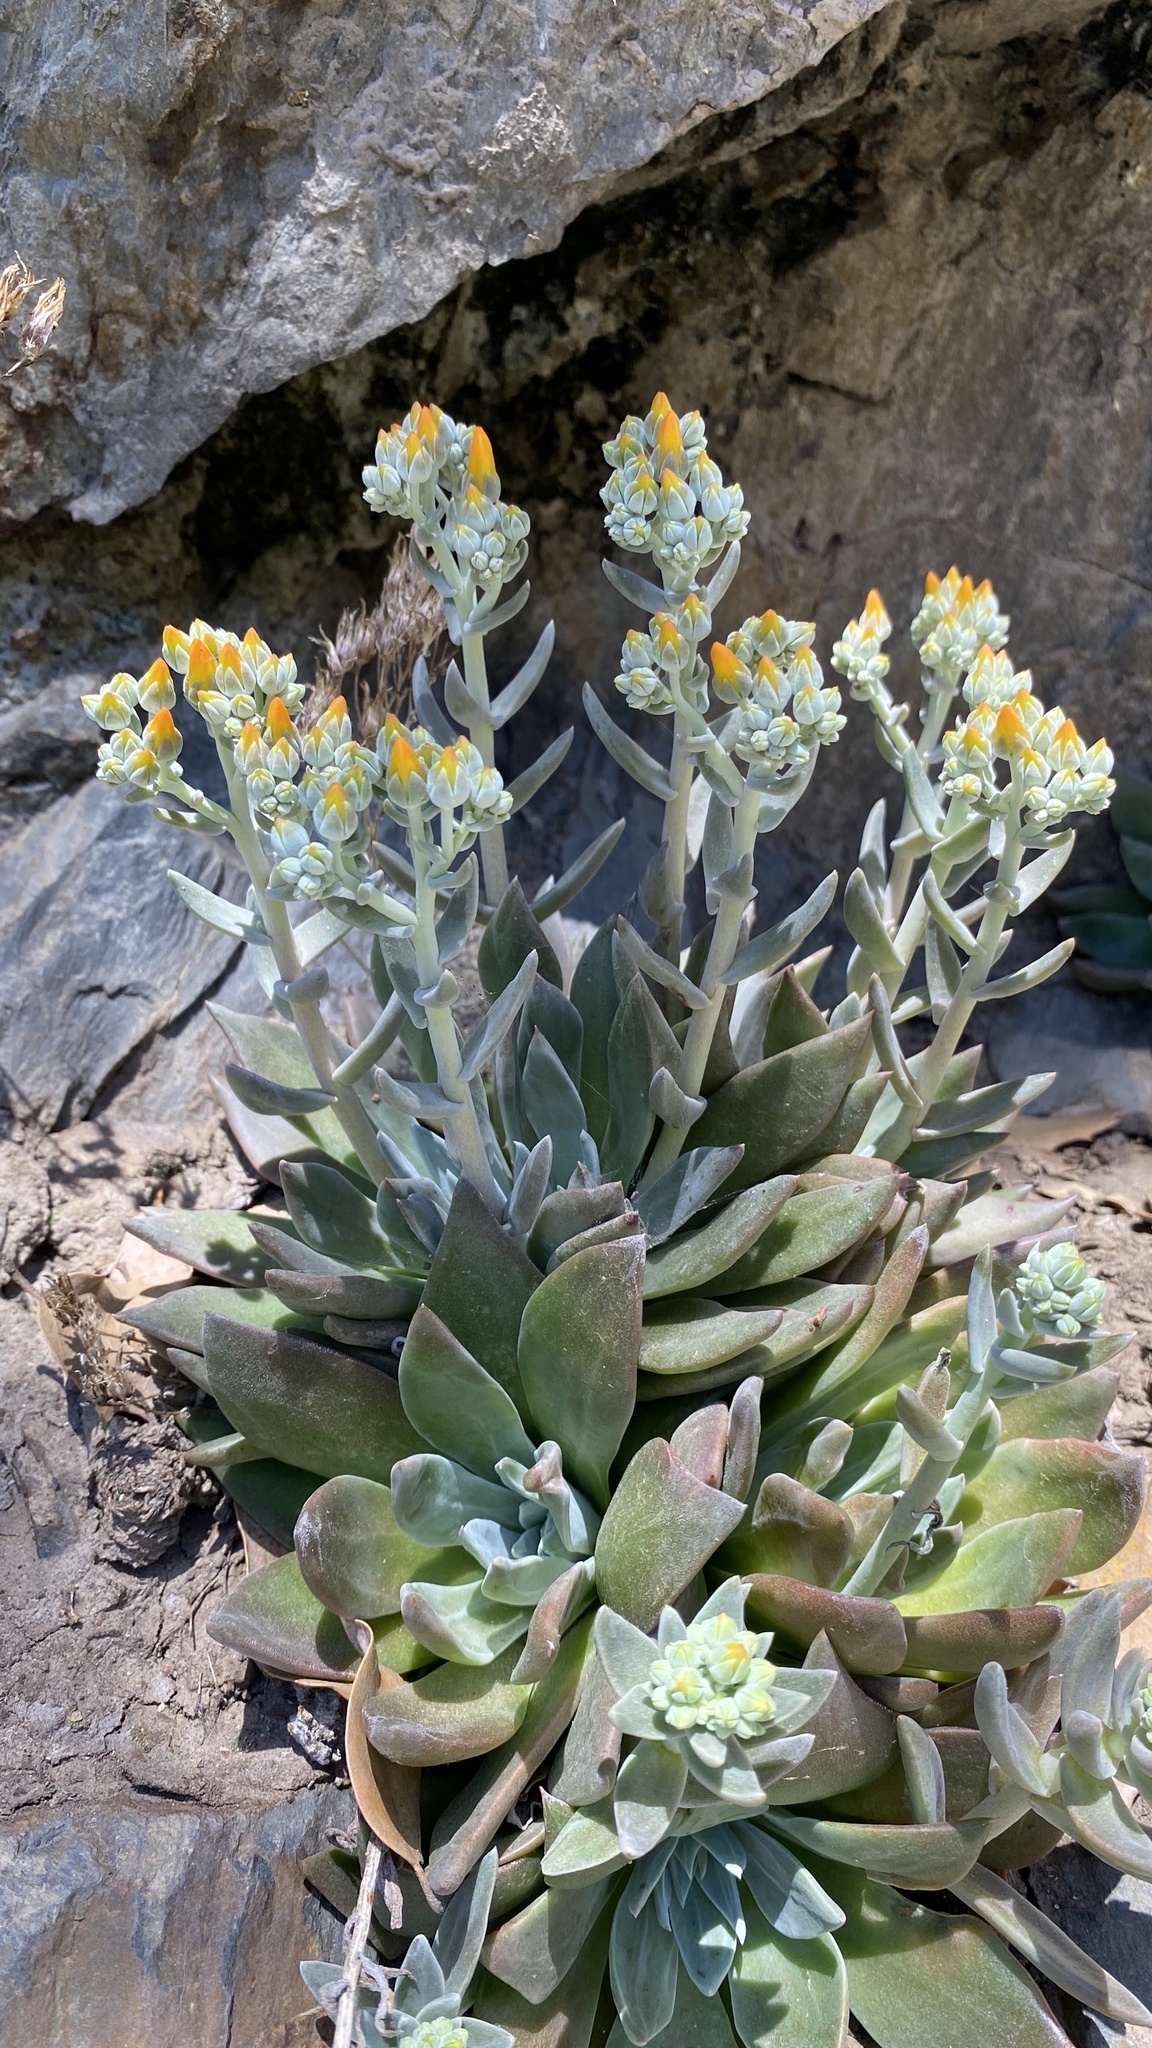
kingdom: Plantae
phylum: Tracheophyta
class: Magnoliopsida
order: Saxifragales
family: Crassulaceae
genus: Dudleya
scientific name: Dudleya cymosa
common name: Canyon dudleya
